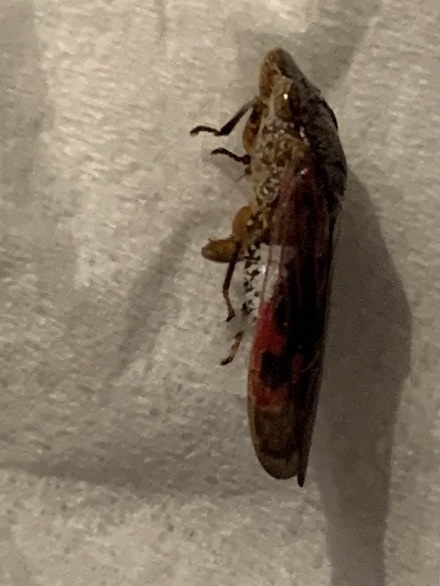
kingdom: Animalia
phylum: Arthropoda
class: Insecta
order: Hemiptera
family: Cicadellidae
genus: Homalodisca
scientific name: Homalodisca vitripennis
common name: Glassy-winged sharpshooter
